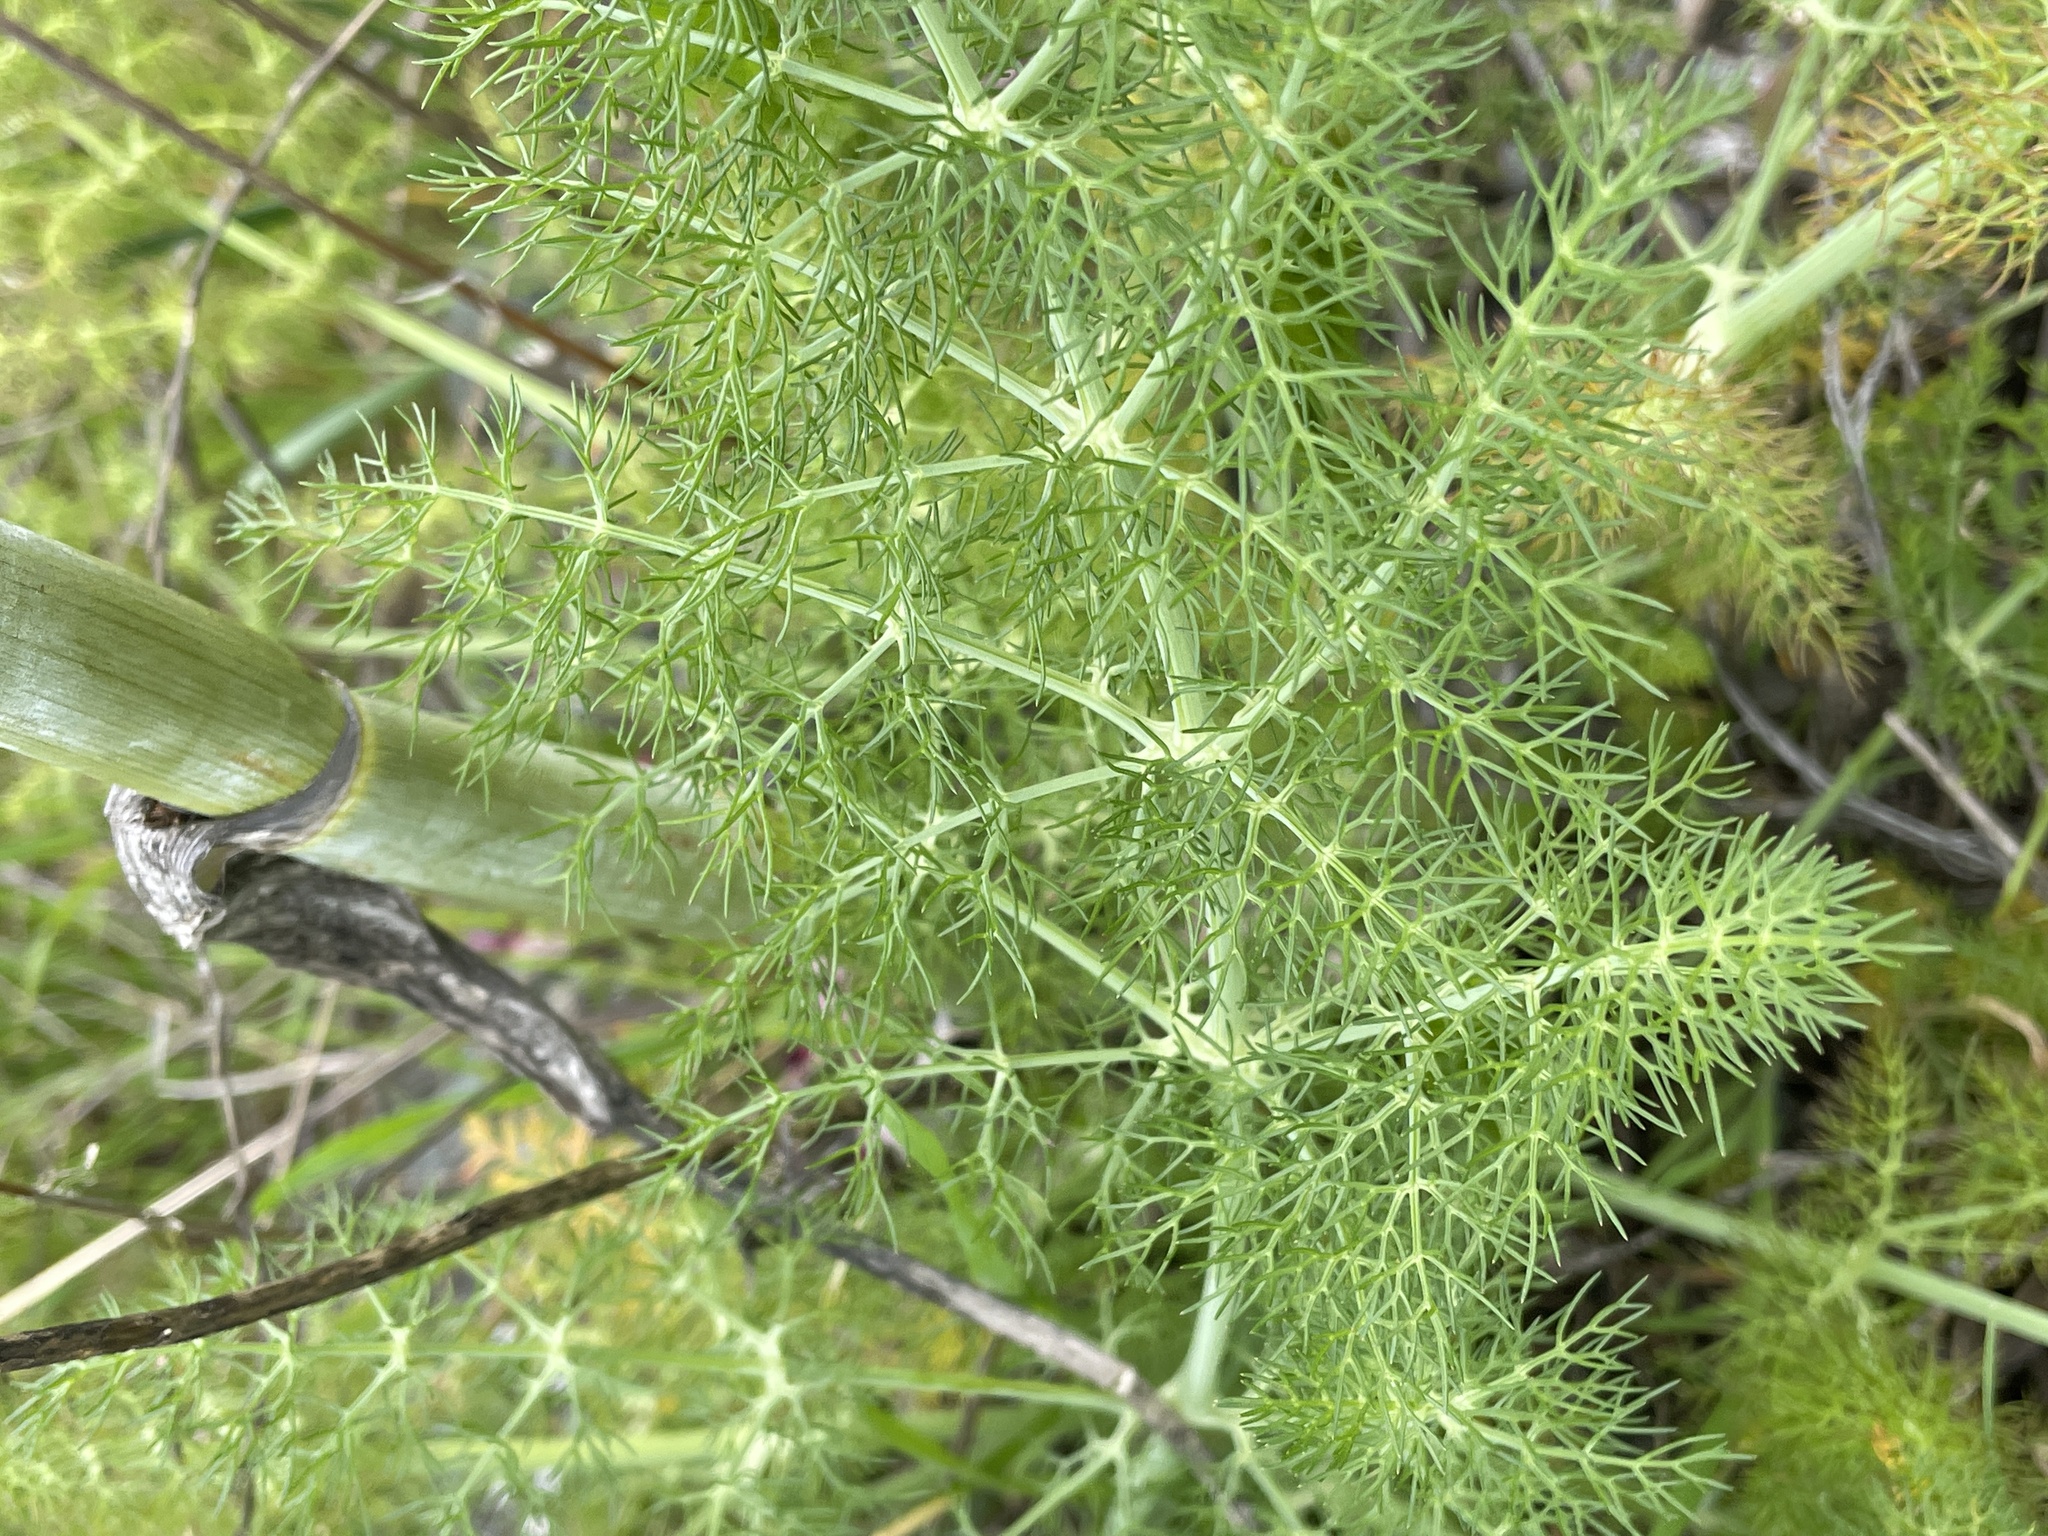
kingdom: Plantae
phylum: Tracheophyta
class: Magnoliopsida
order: Apiales
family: Apiaceae
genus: Foeniculum
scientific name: Foeniculum vulgare
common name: Fennel
